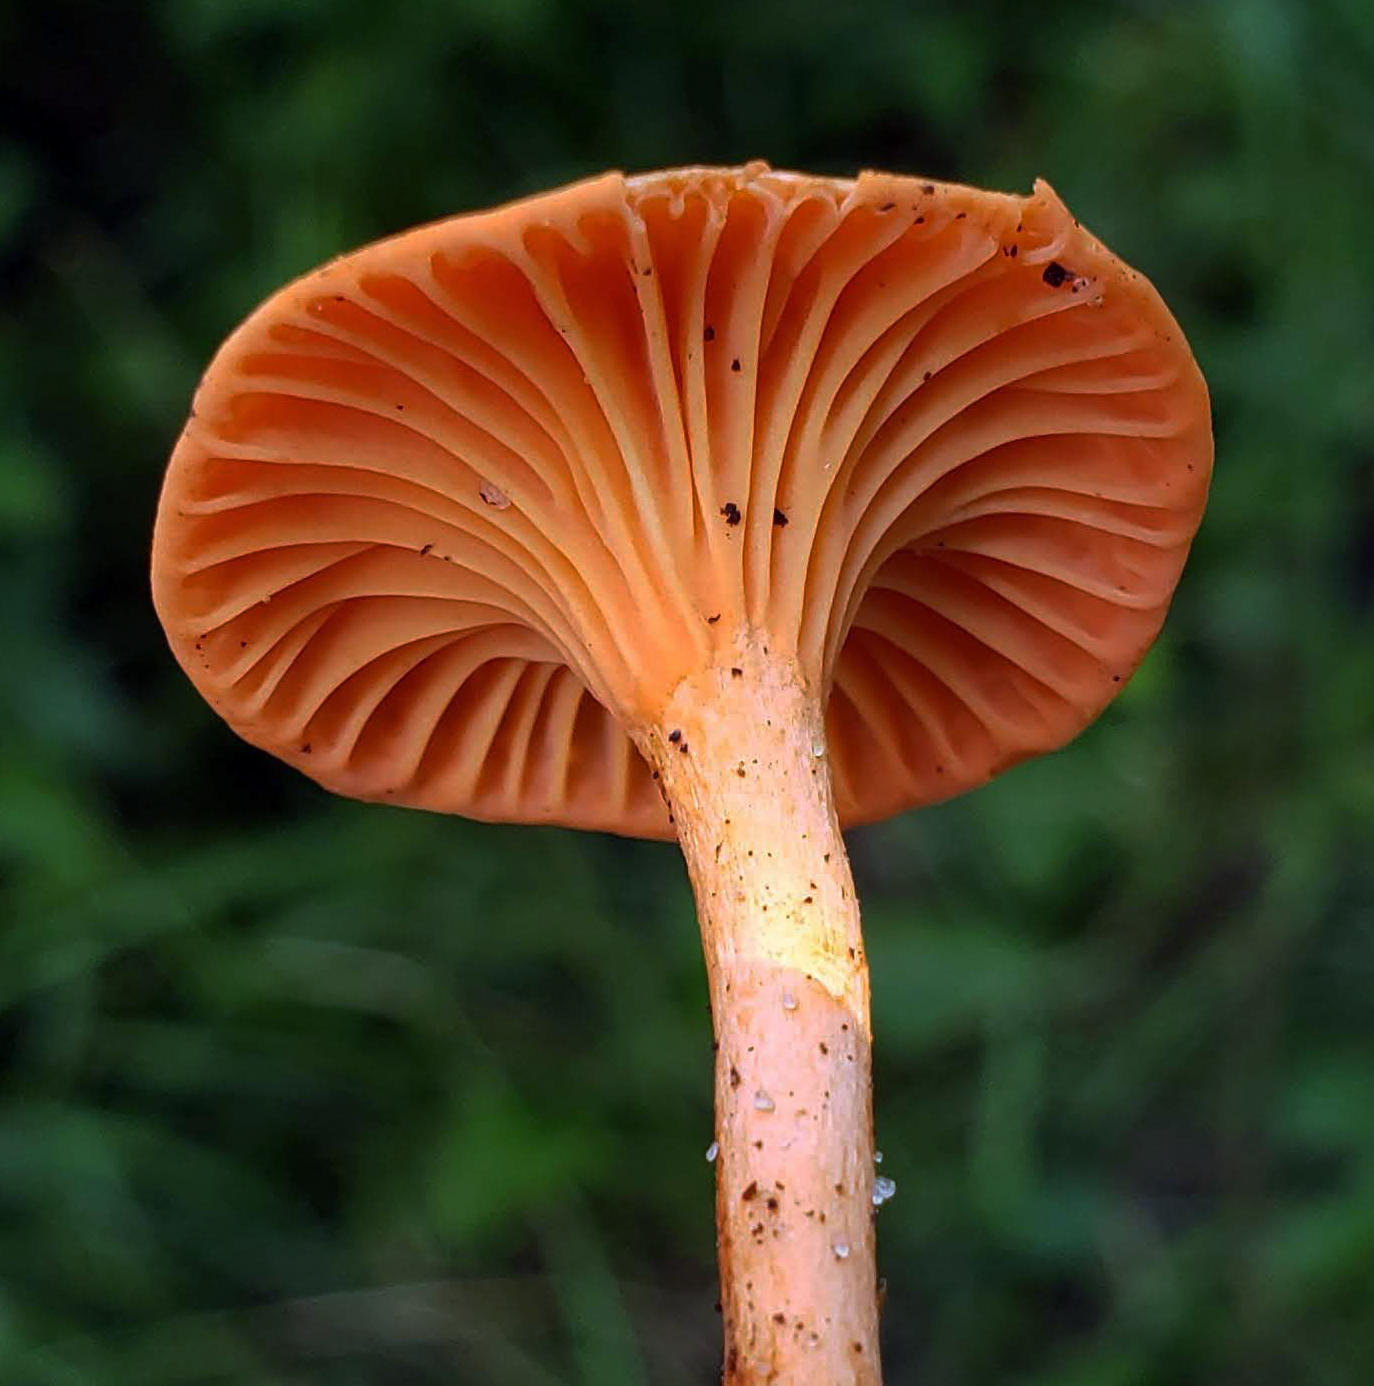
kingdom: Fungi
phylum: Basidiomycota
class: Agaricomycetes
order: Cantharellales
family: Hydnaceae
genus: Cantharellus
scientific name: Cantharellus cinnabarinus
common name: Cinnabar chanterelle
